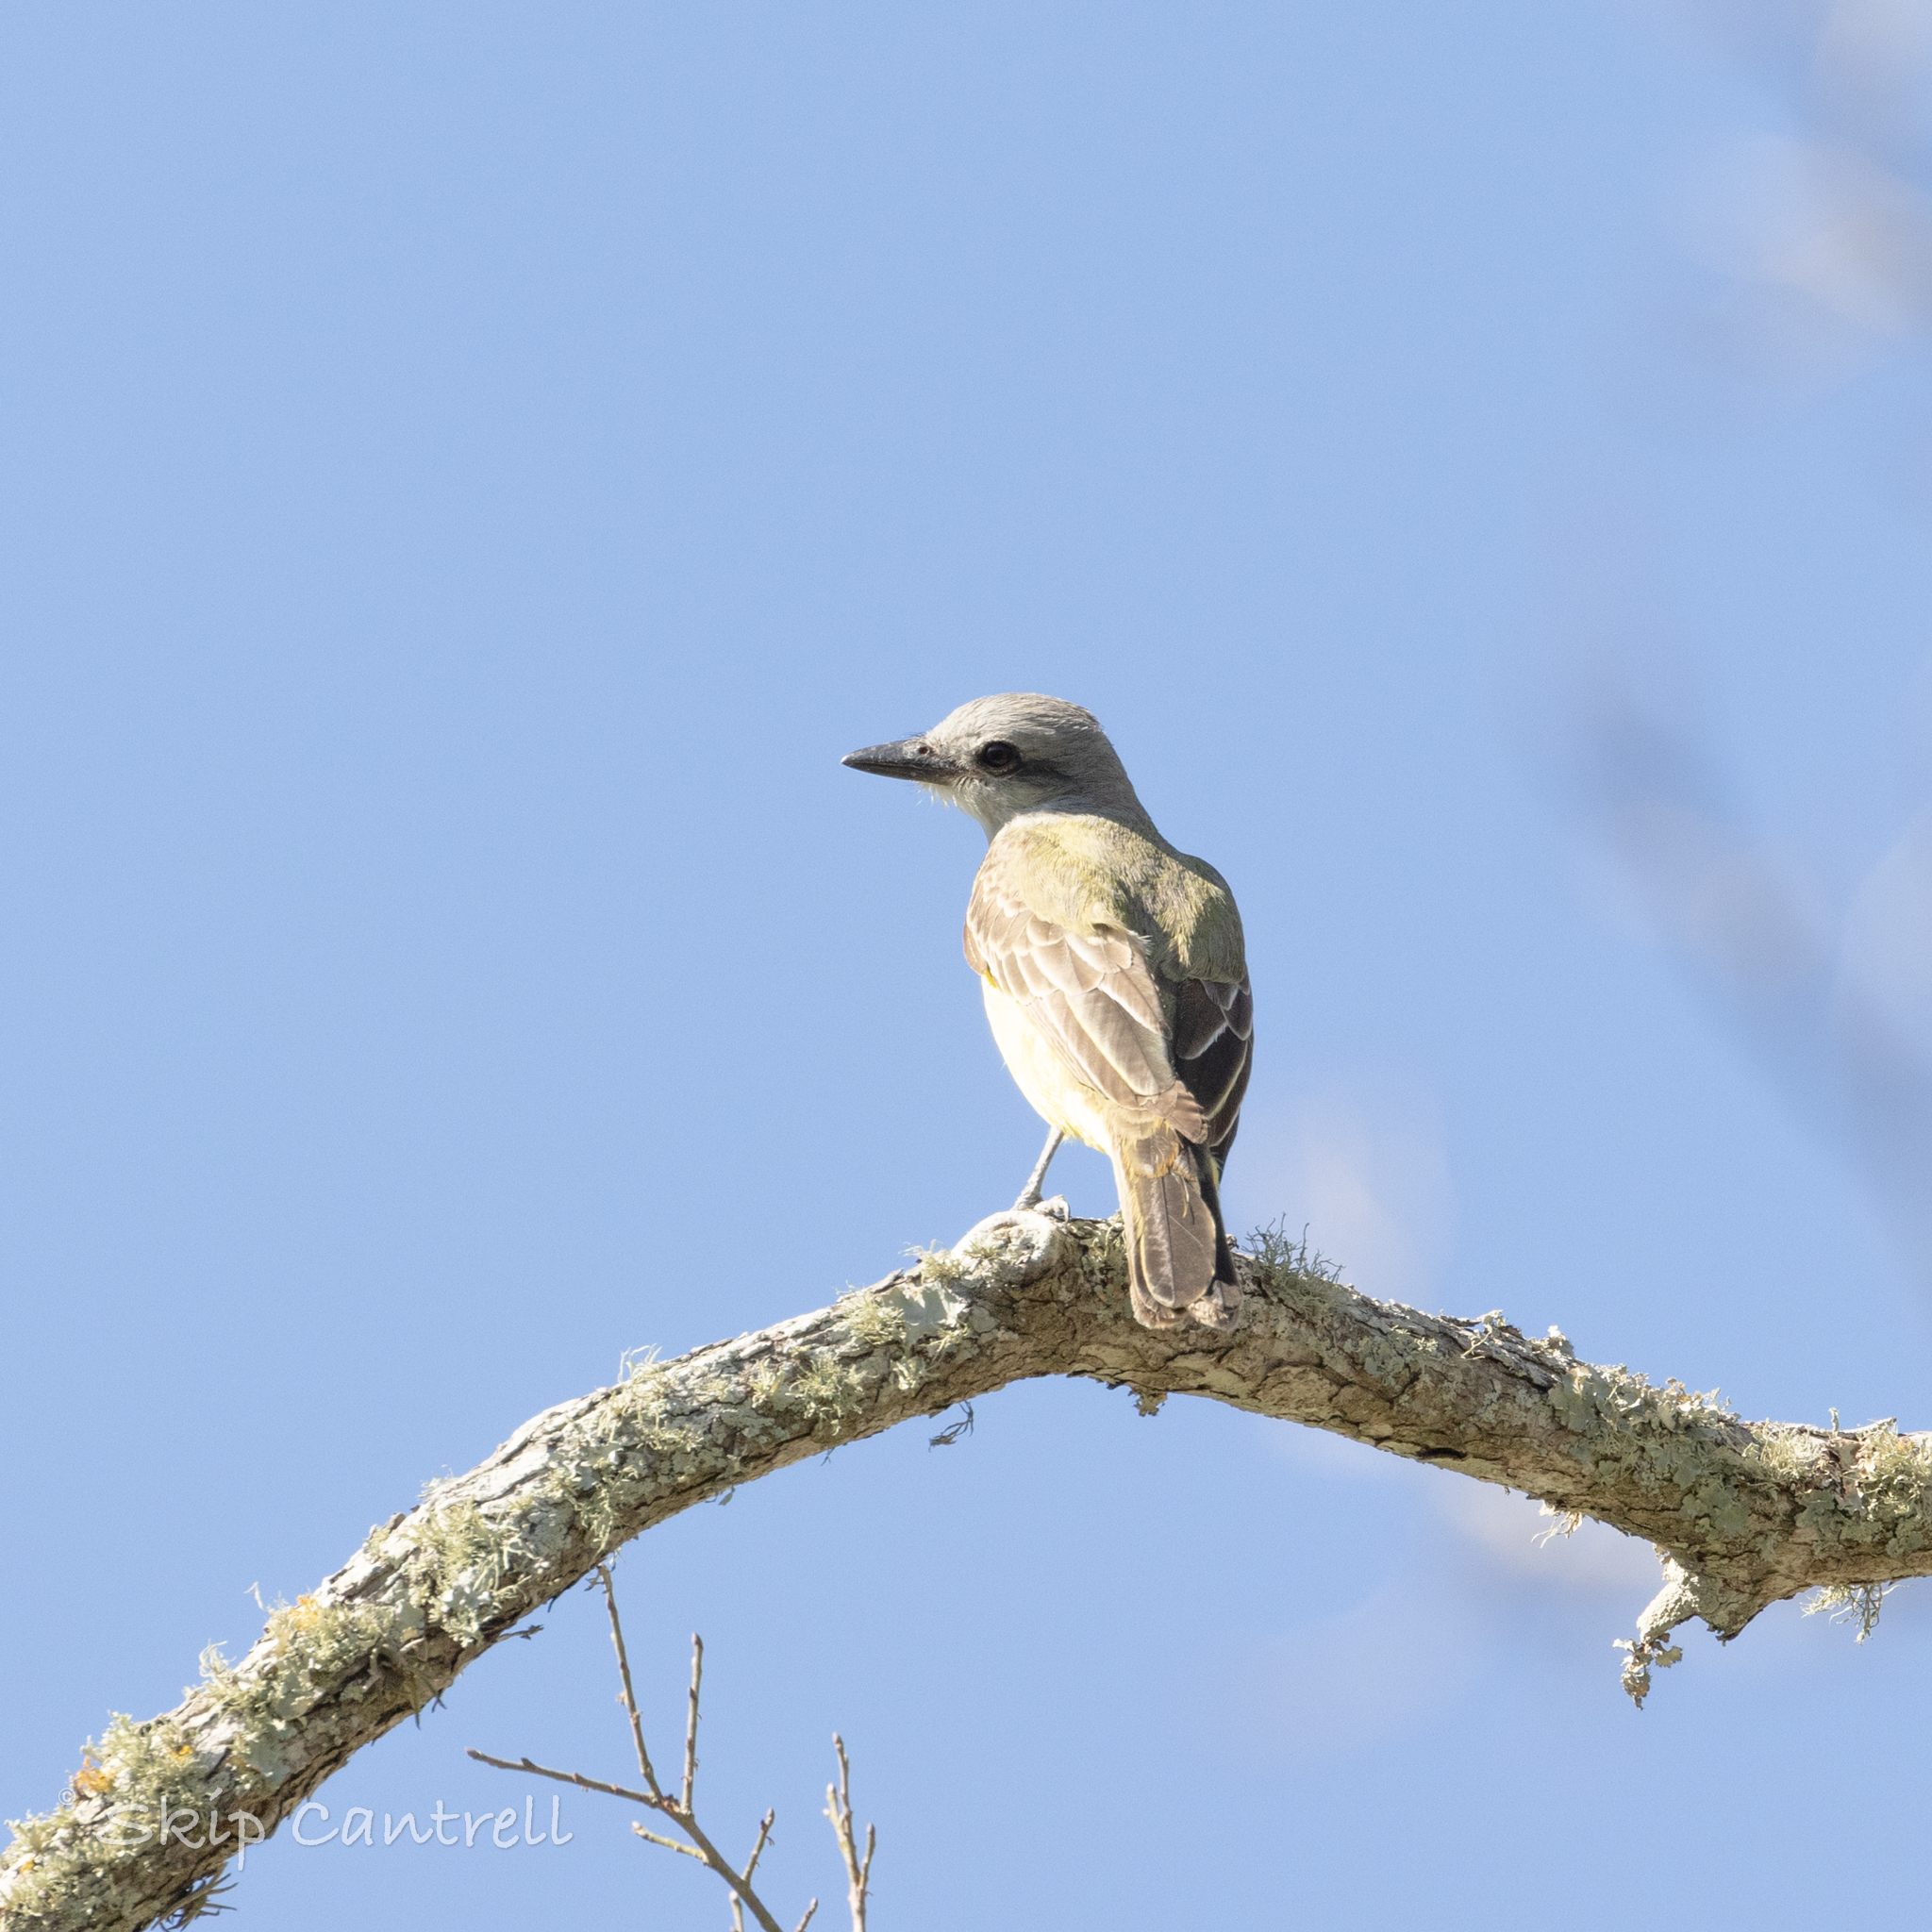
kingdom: Animalia
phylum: Chordata
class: Aves
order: Passeriformes
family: Tyrannidae
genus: Tyrannus
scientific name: Tyrannus couchii
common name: Couch's kingbird
